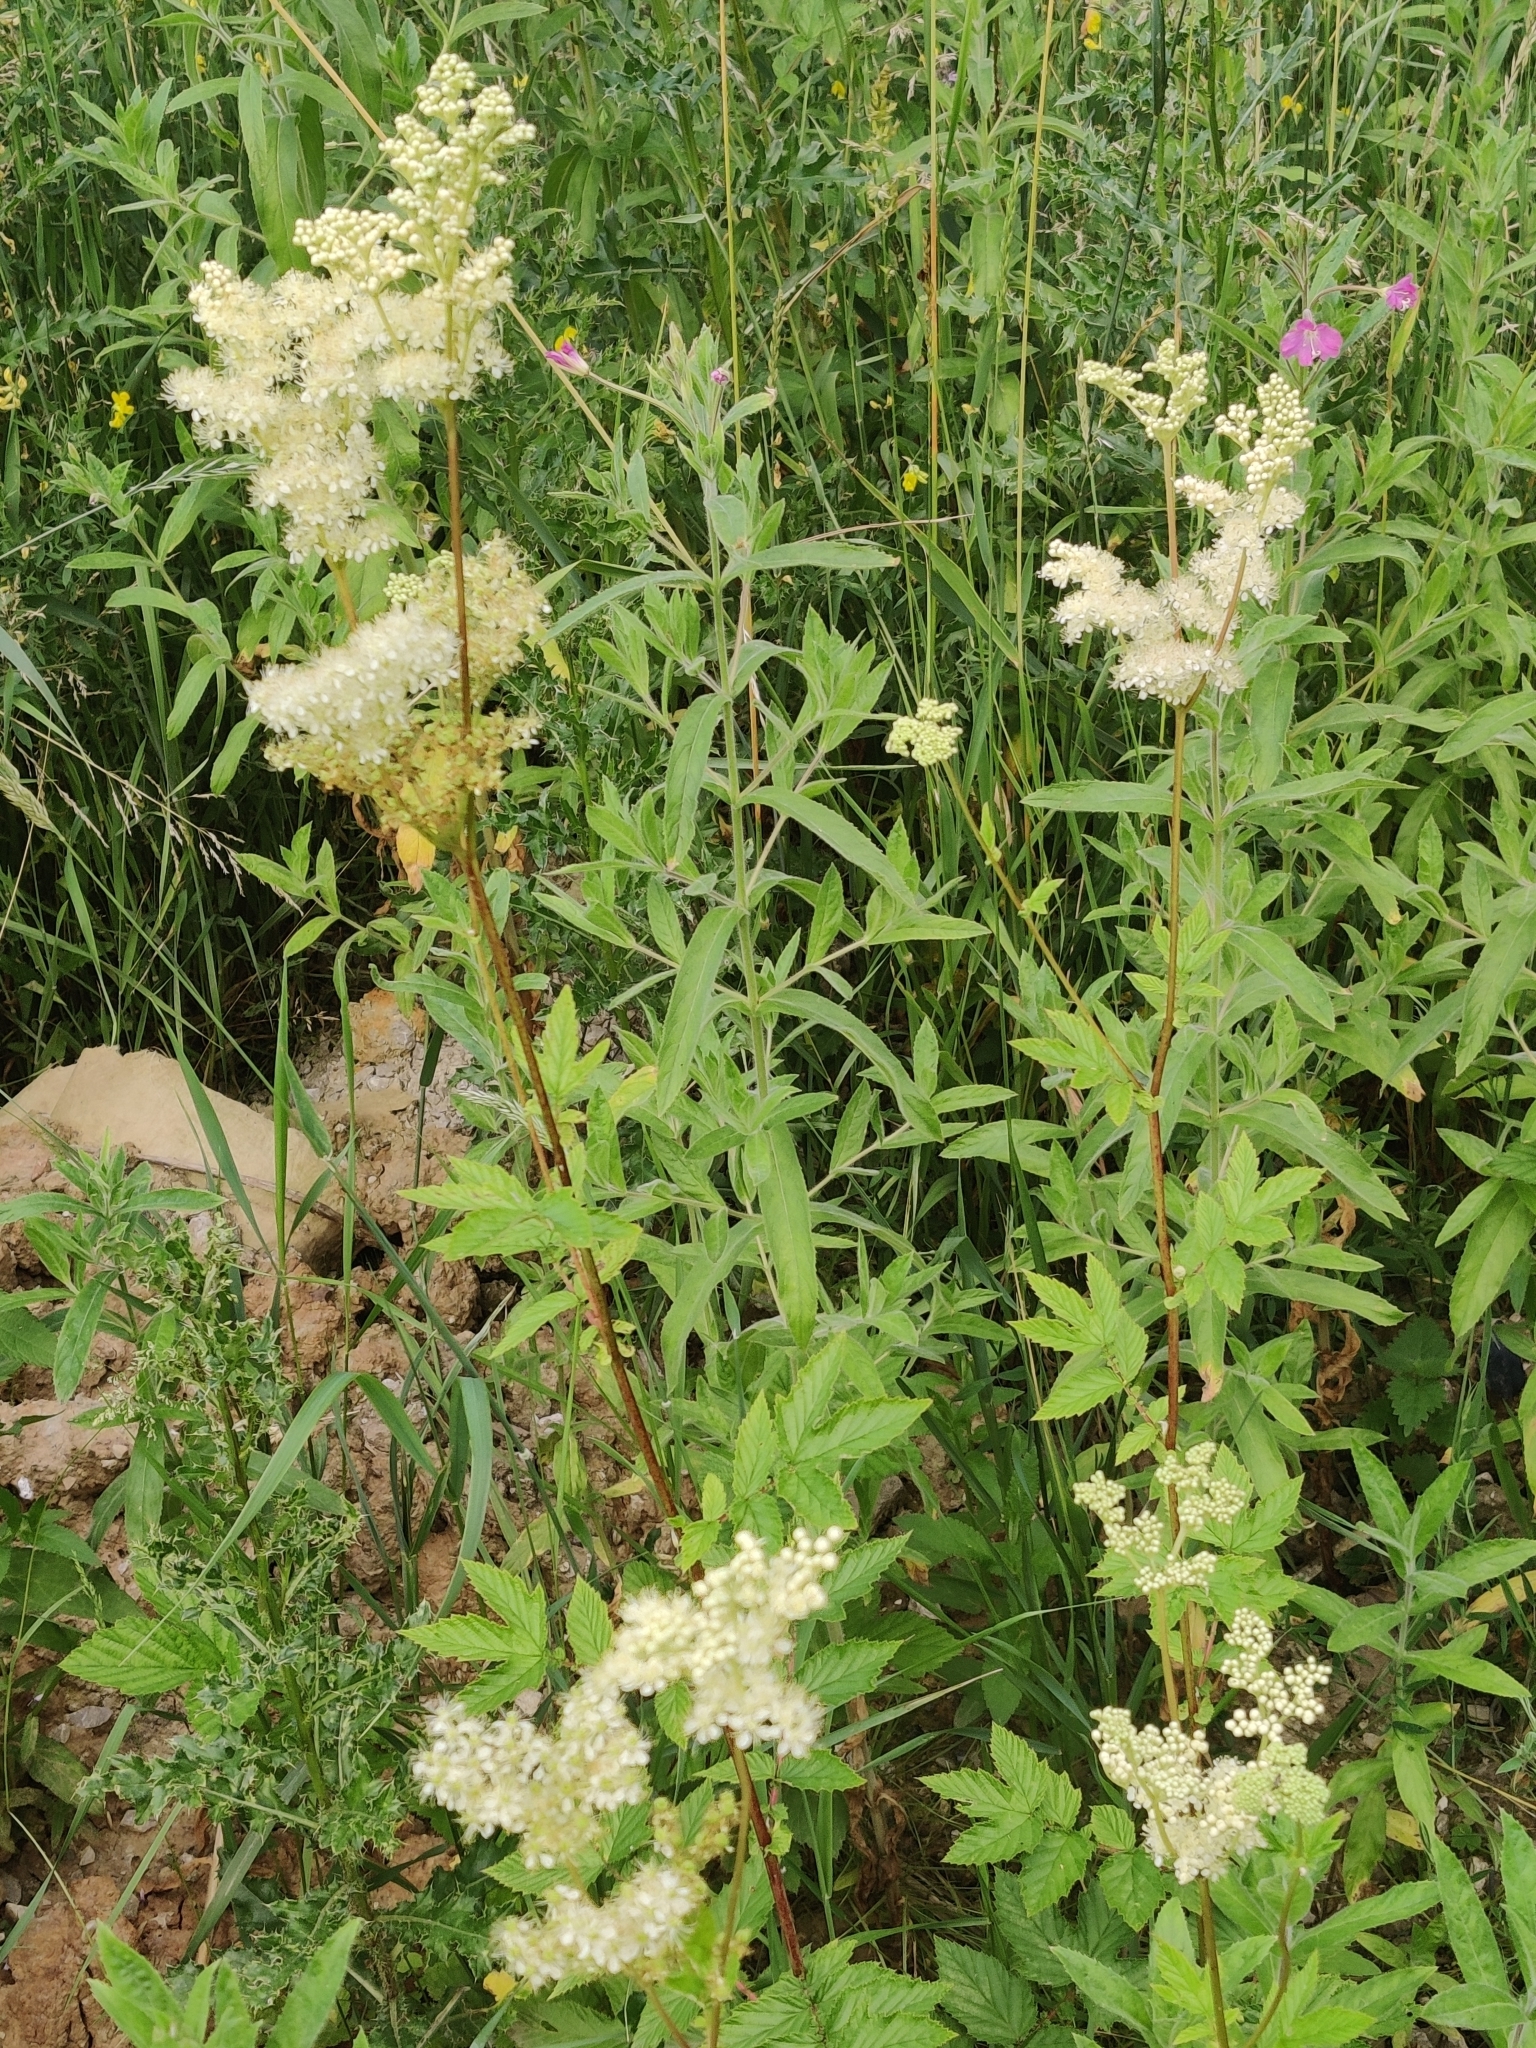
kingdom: Plantae
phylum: Tracheophyta
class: Magnoliopsida
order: Rosales
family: Rosaceae
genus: Filipendula
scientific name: Filipendula ulmaria
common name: Meadowsweet
